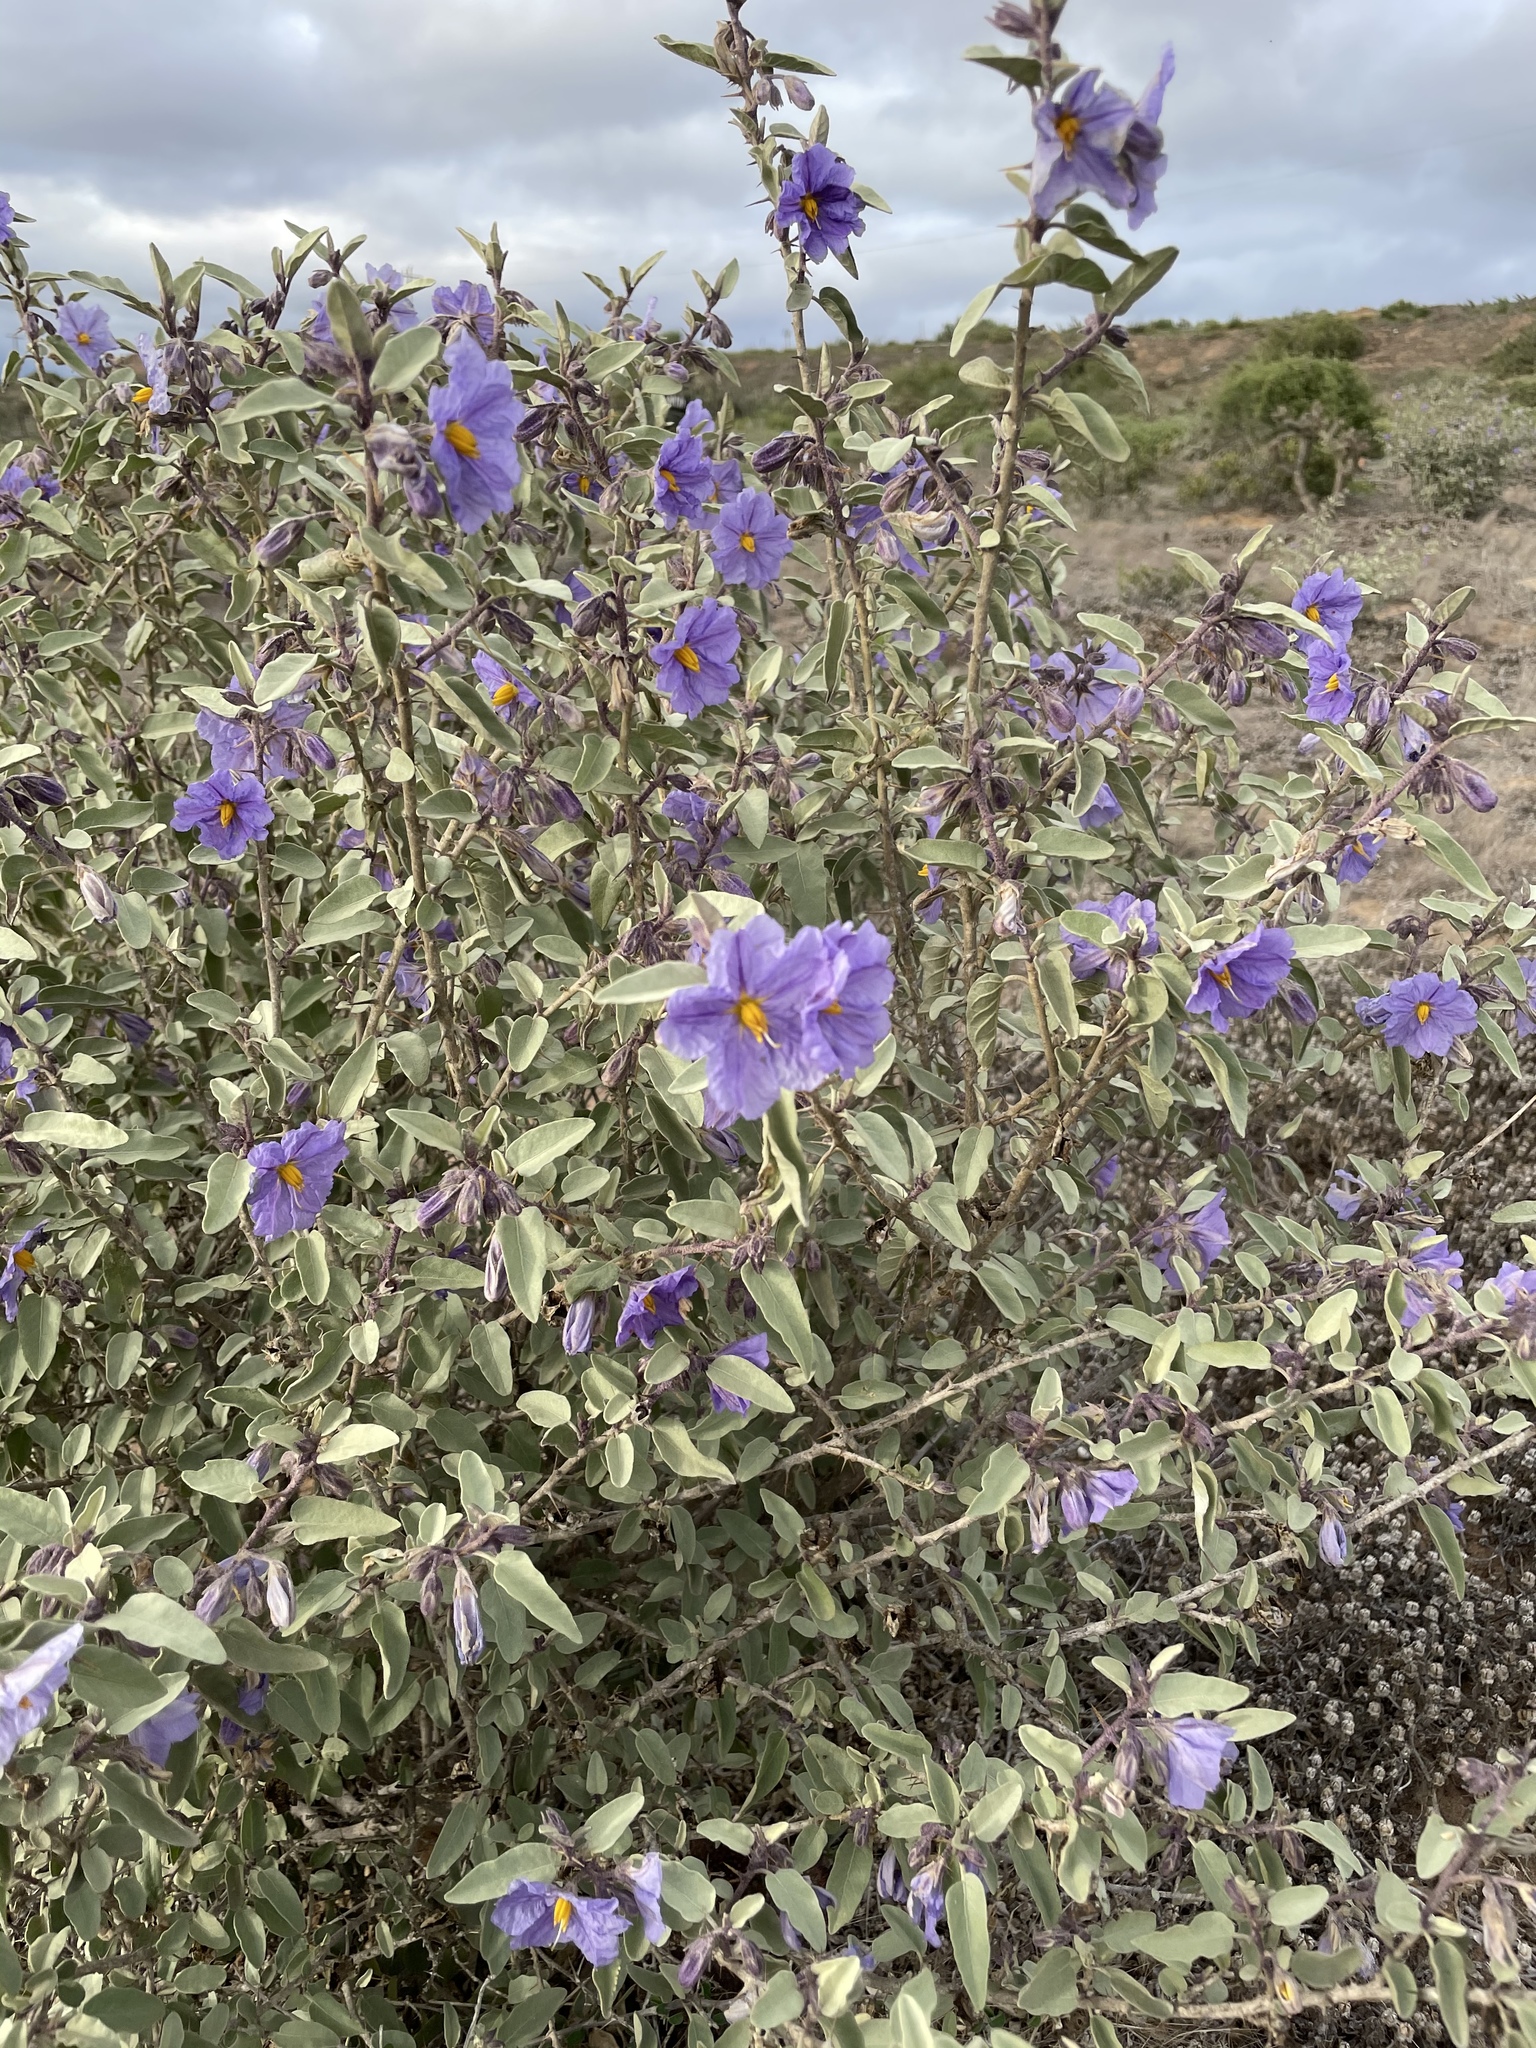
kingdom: Plantae
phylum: Tracheophyta
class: Magnoliopsida
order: Solanales
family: Solanaceae
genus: Solanum
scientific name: Solanum hindsianum
